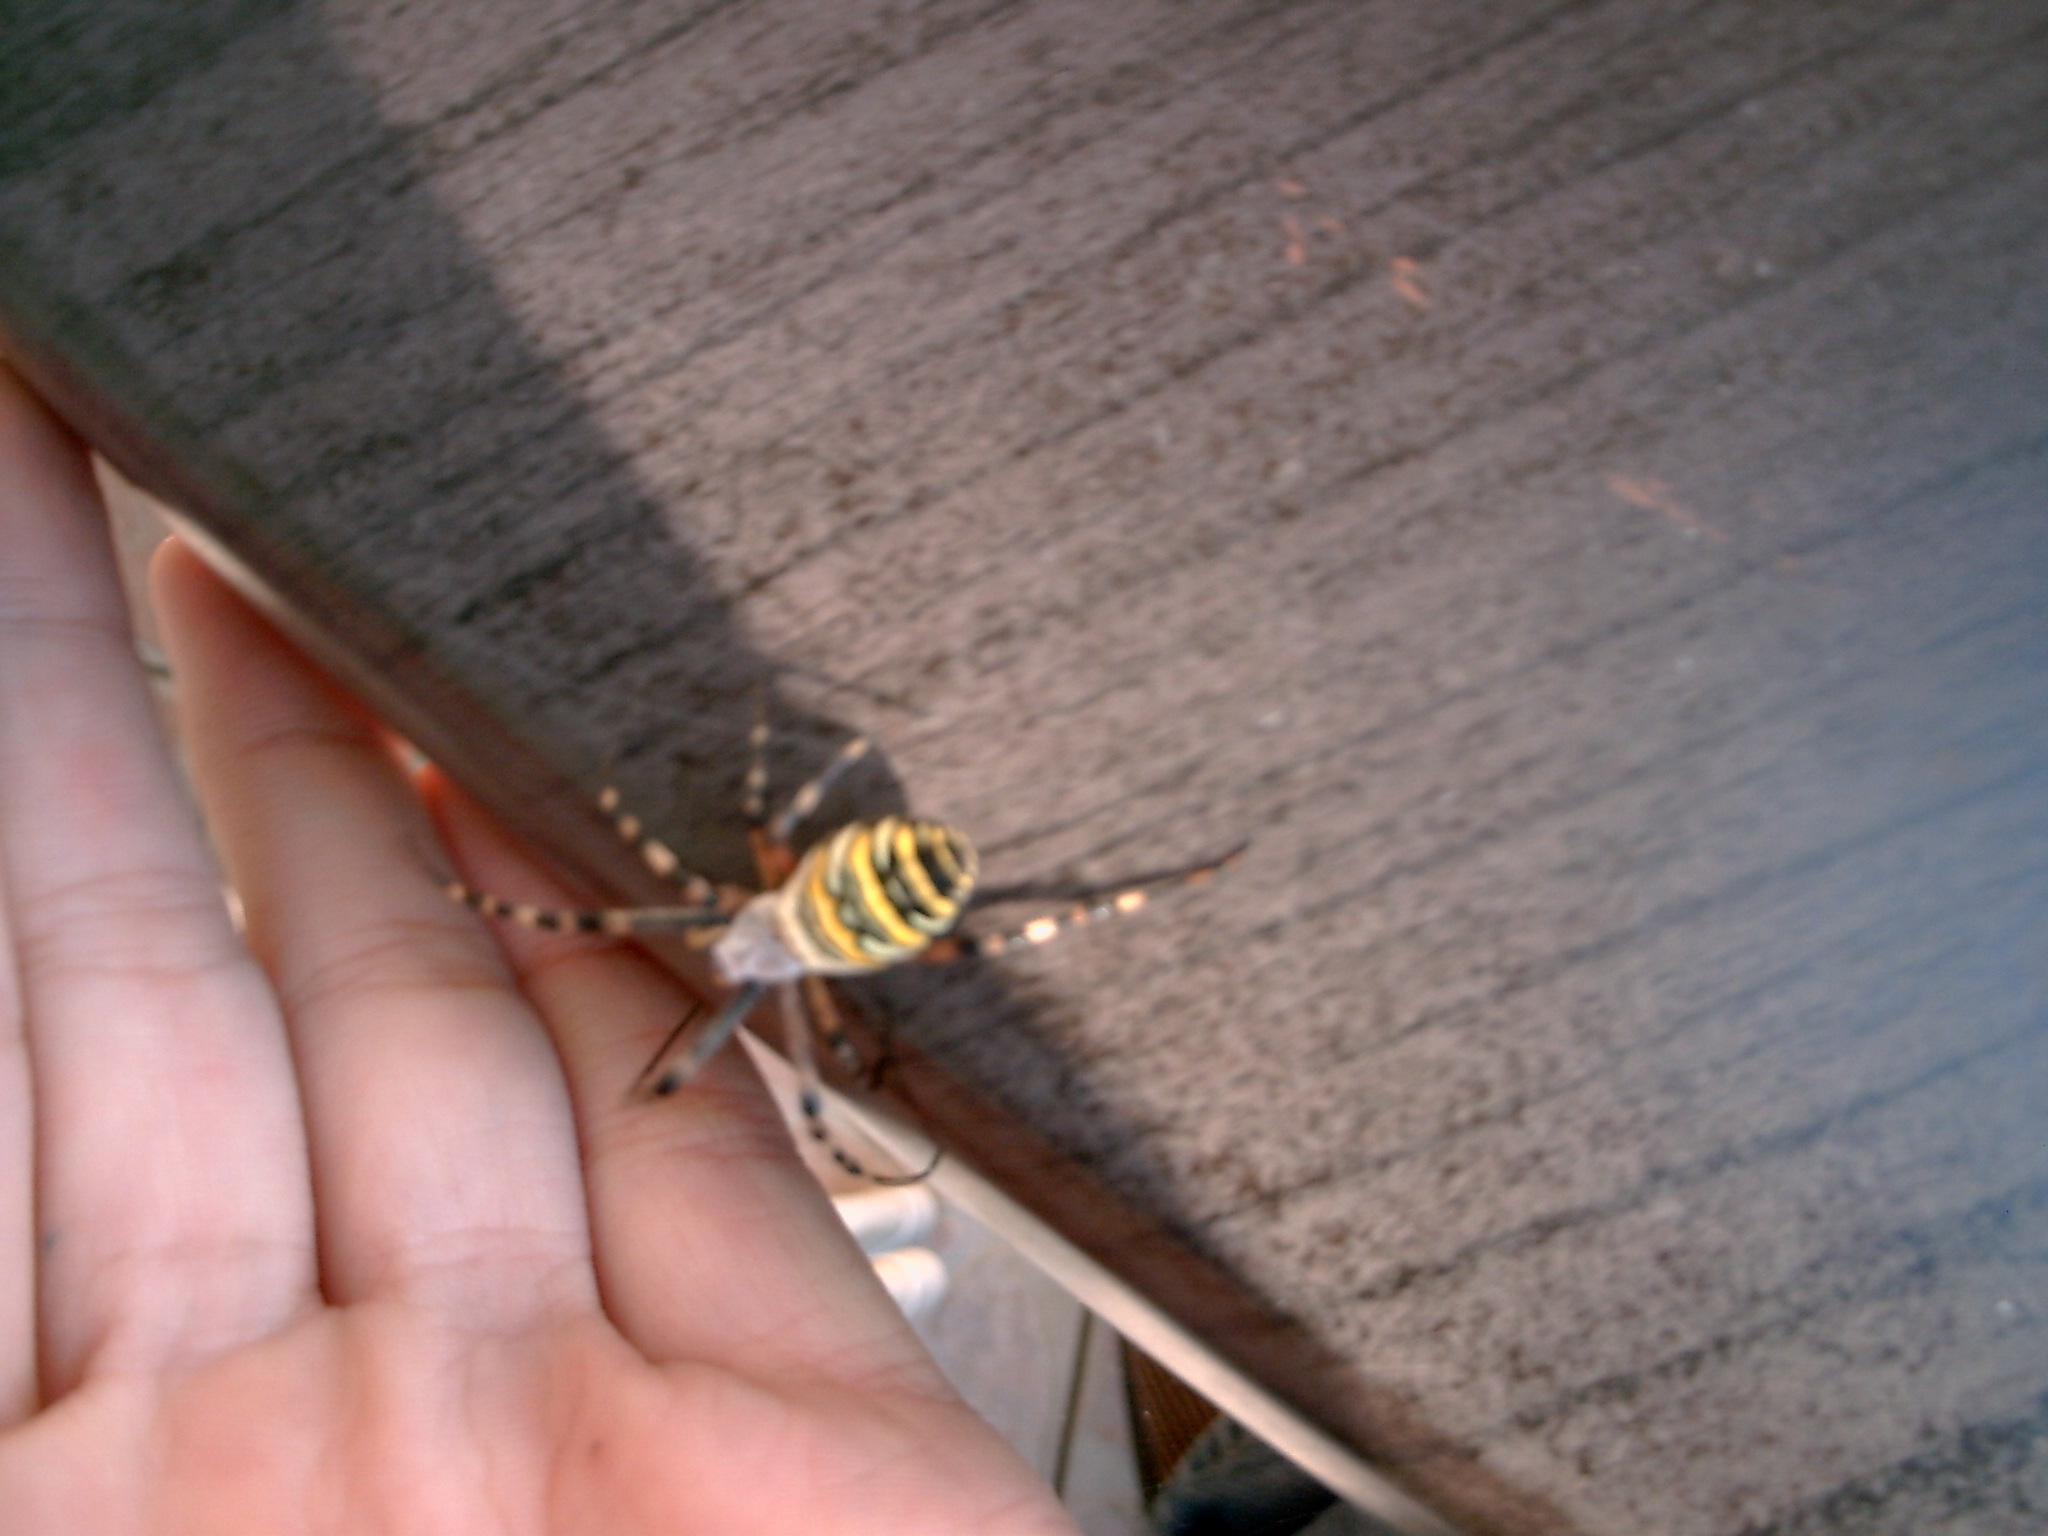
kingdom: Animalia
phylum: Arthropoda
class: Arachnida
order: Araneae
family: Araneidae
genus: Argiope
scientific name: Argiope bruennichi
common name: Wasp spider
